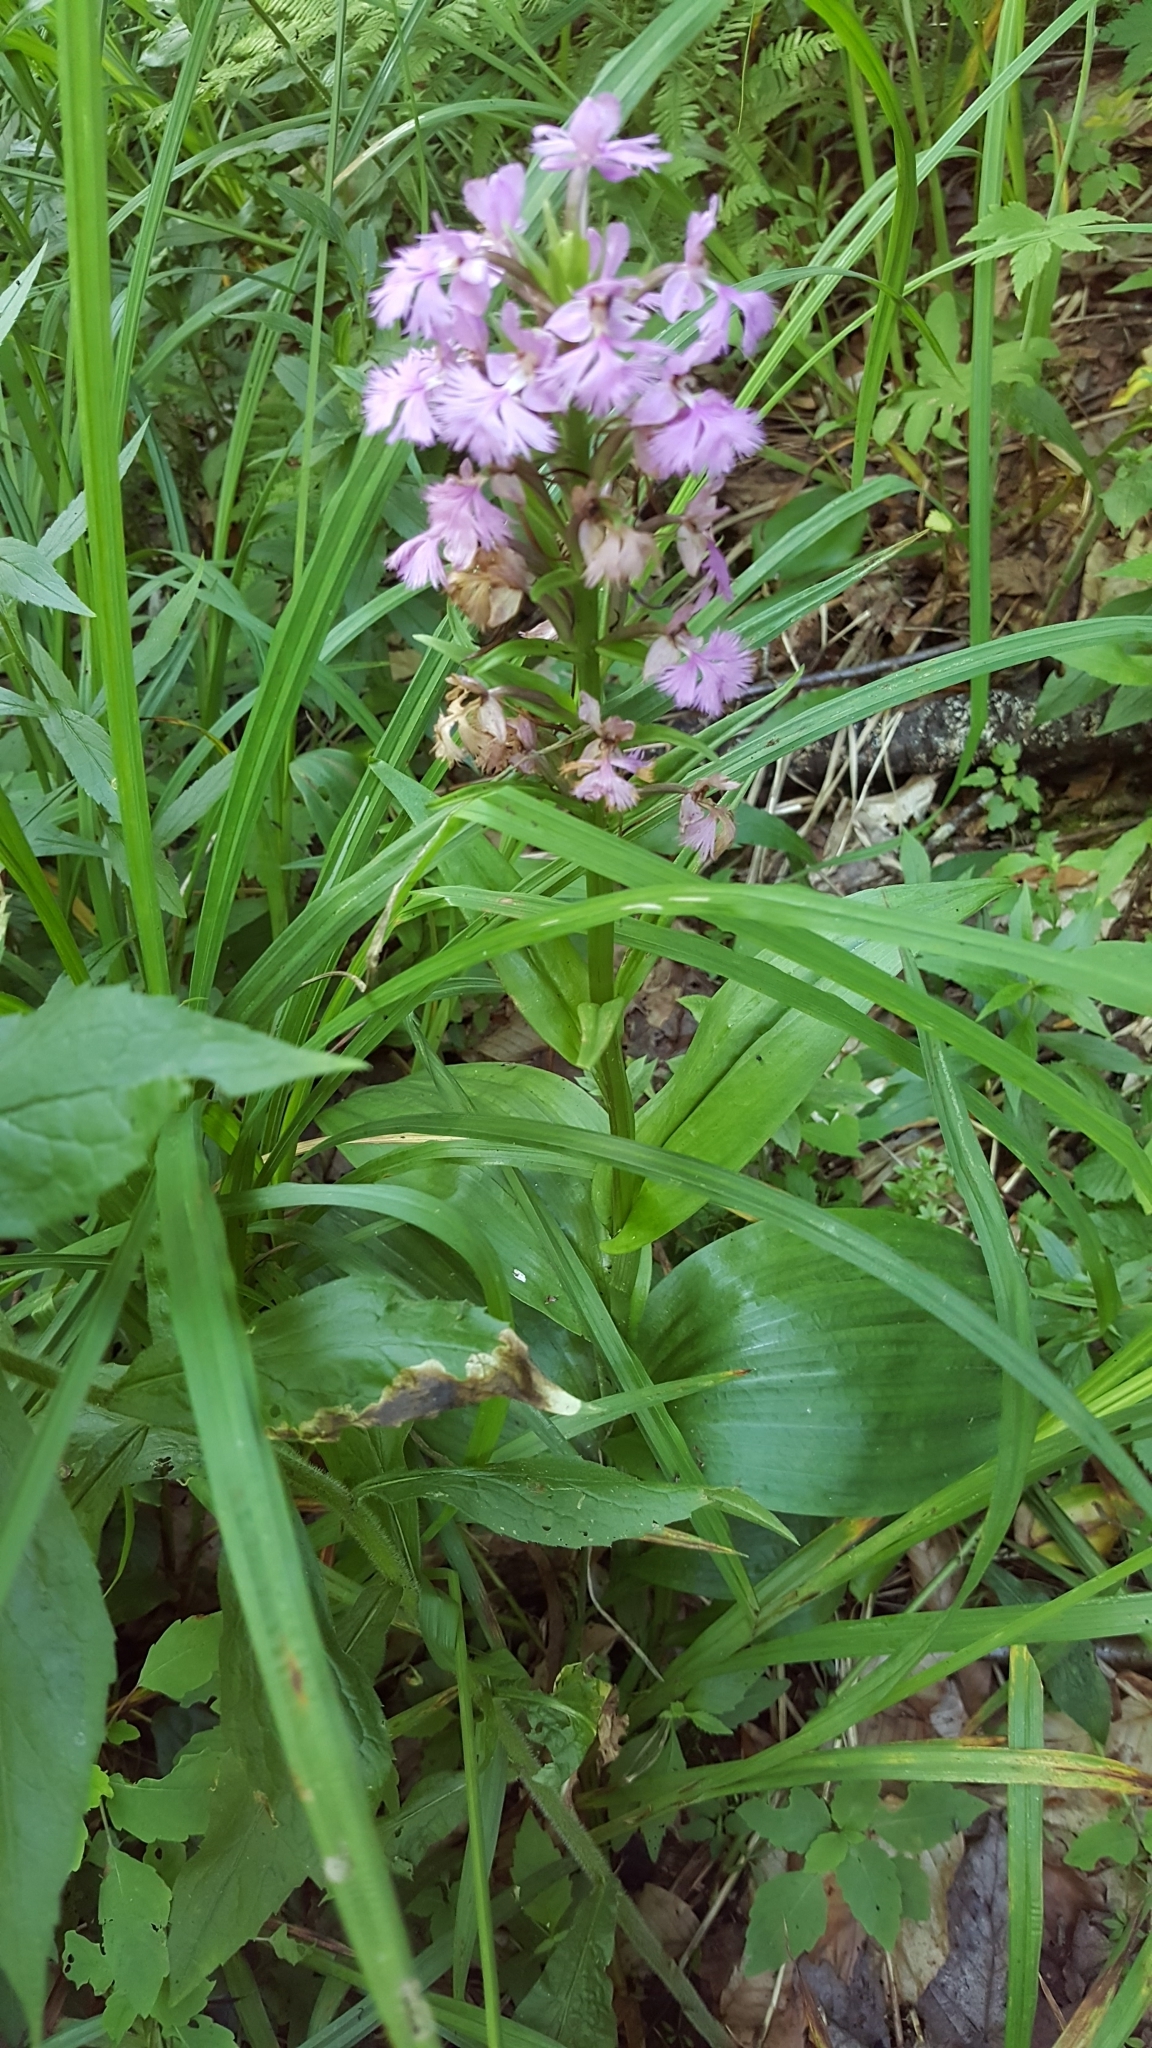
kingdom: Plantae
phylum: Tracheophyta
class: Liliopsida
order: Asparagales
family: Orchidaceae
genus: Platanthera
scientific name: Platanthera grandiflora
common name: Greater purple fringed orchid
